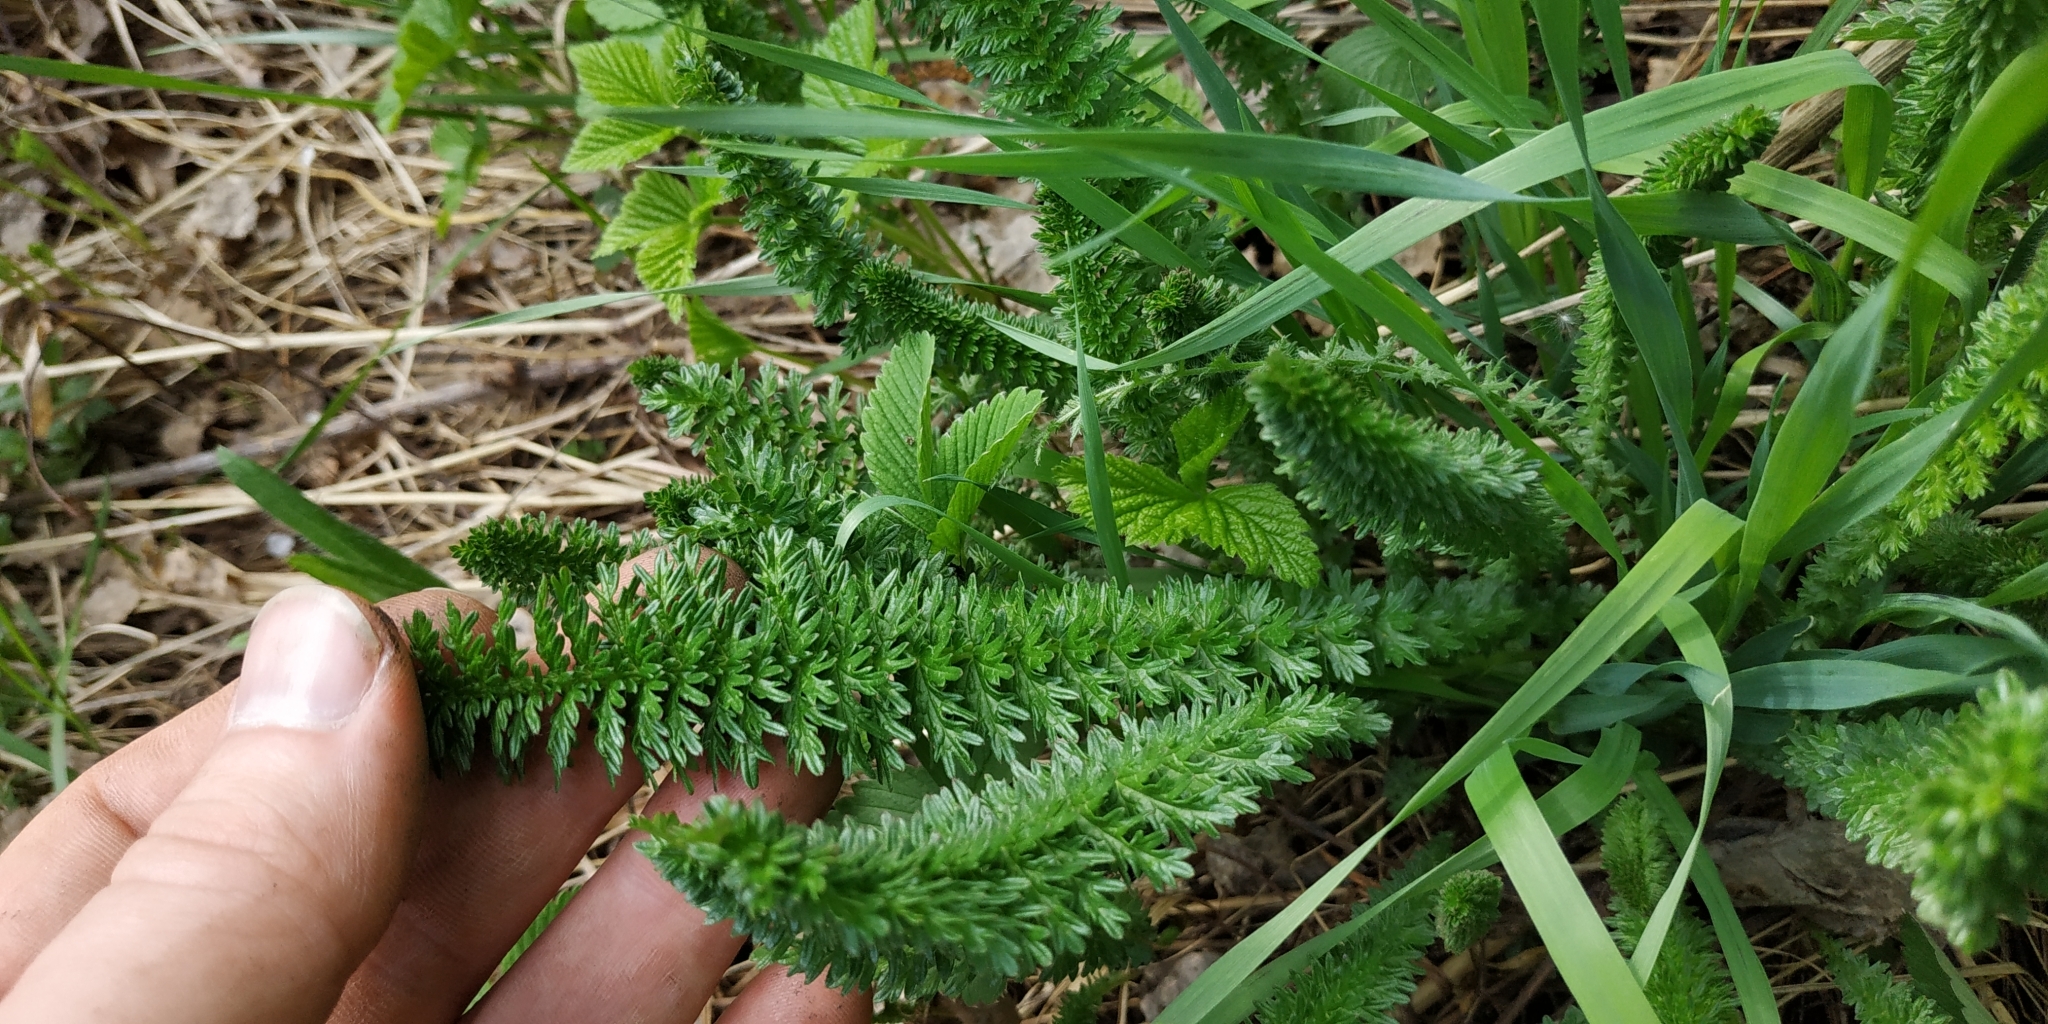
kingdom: Plantae
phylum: Tracheophyta
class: Magnoliopsida
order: Rosales
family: Rosaceae
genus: Filipendula
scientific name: Filipendula vulgaris
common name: Dropwort
